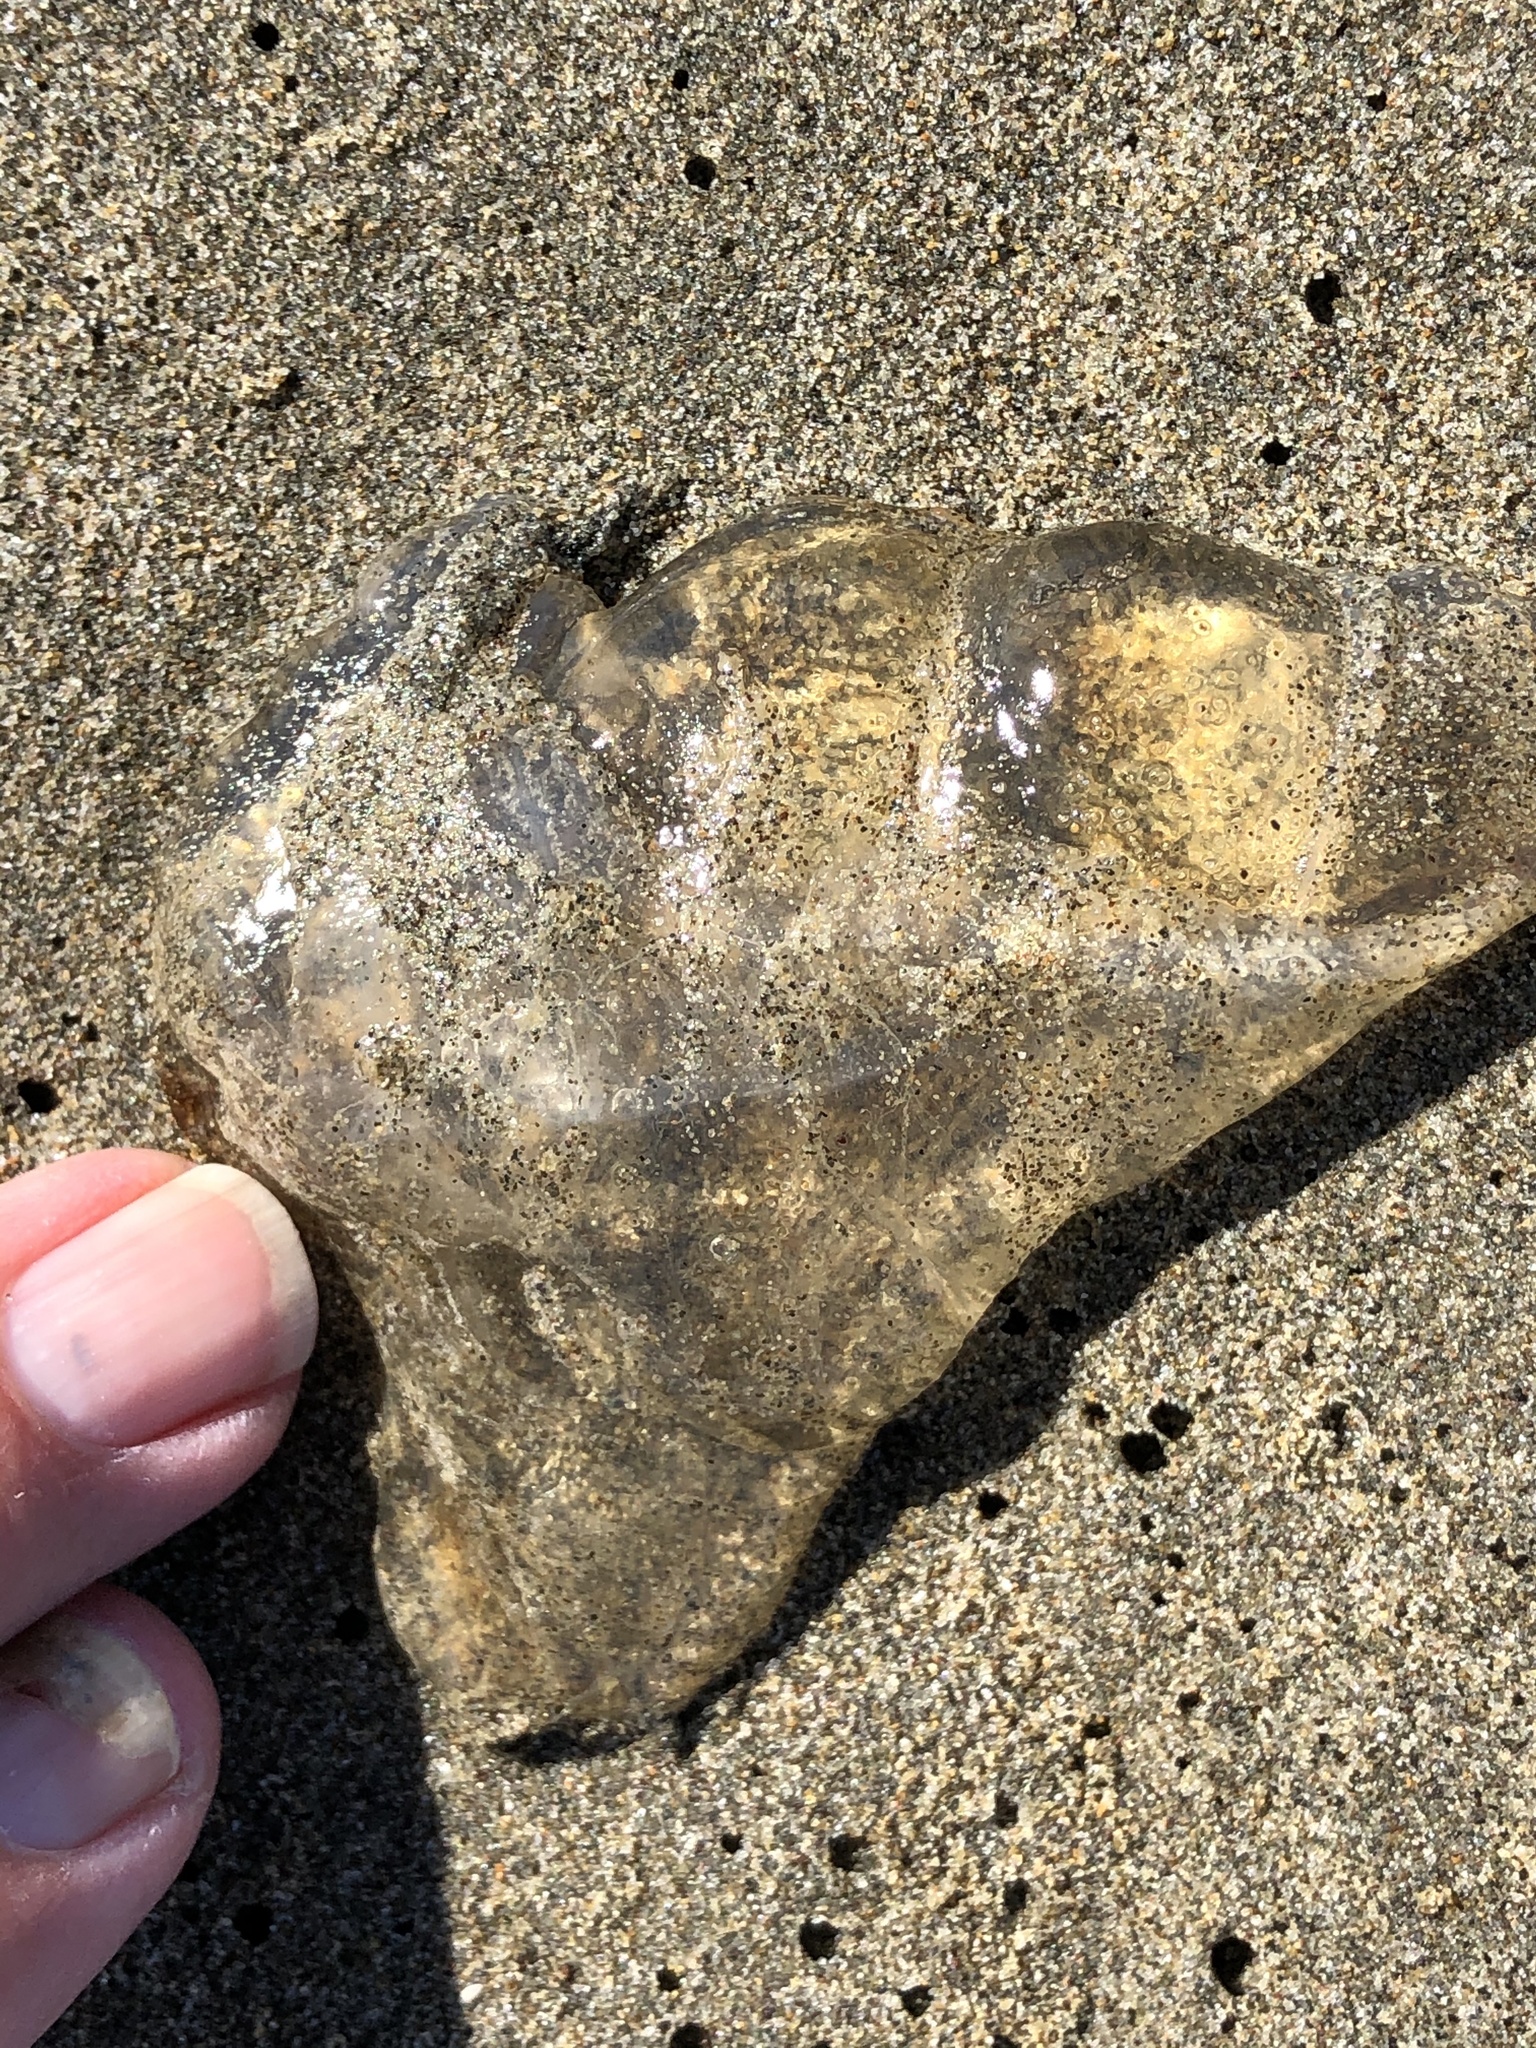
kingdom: Animalia
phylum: Cnidaria
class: Scyphozoa
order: Semaeostomeae
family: Pelagiidae
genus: Chrysaora
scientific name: Chrysaora fuscescens
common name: Sea nettle
